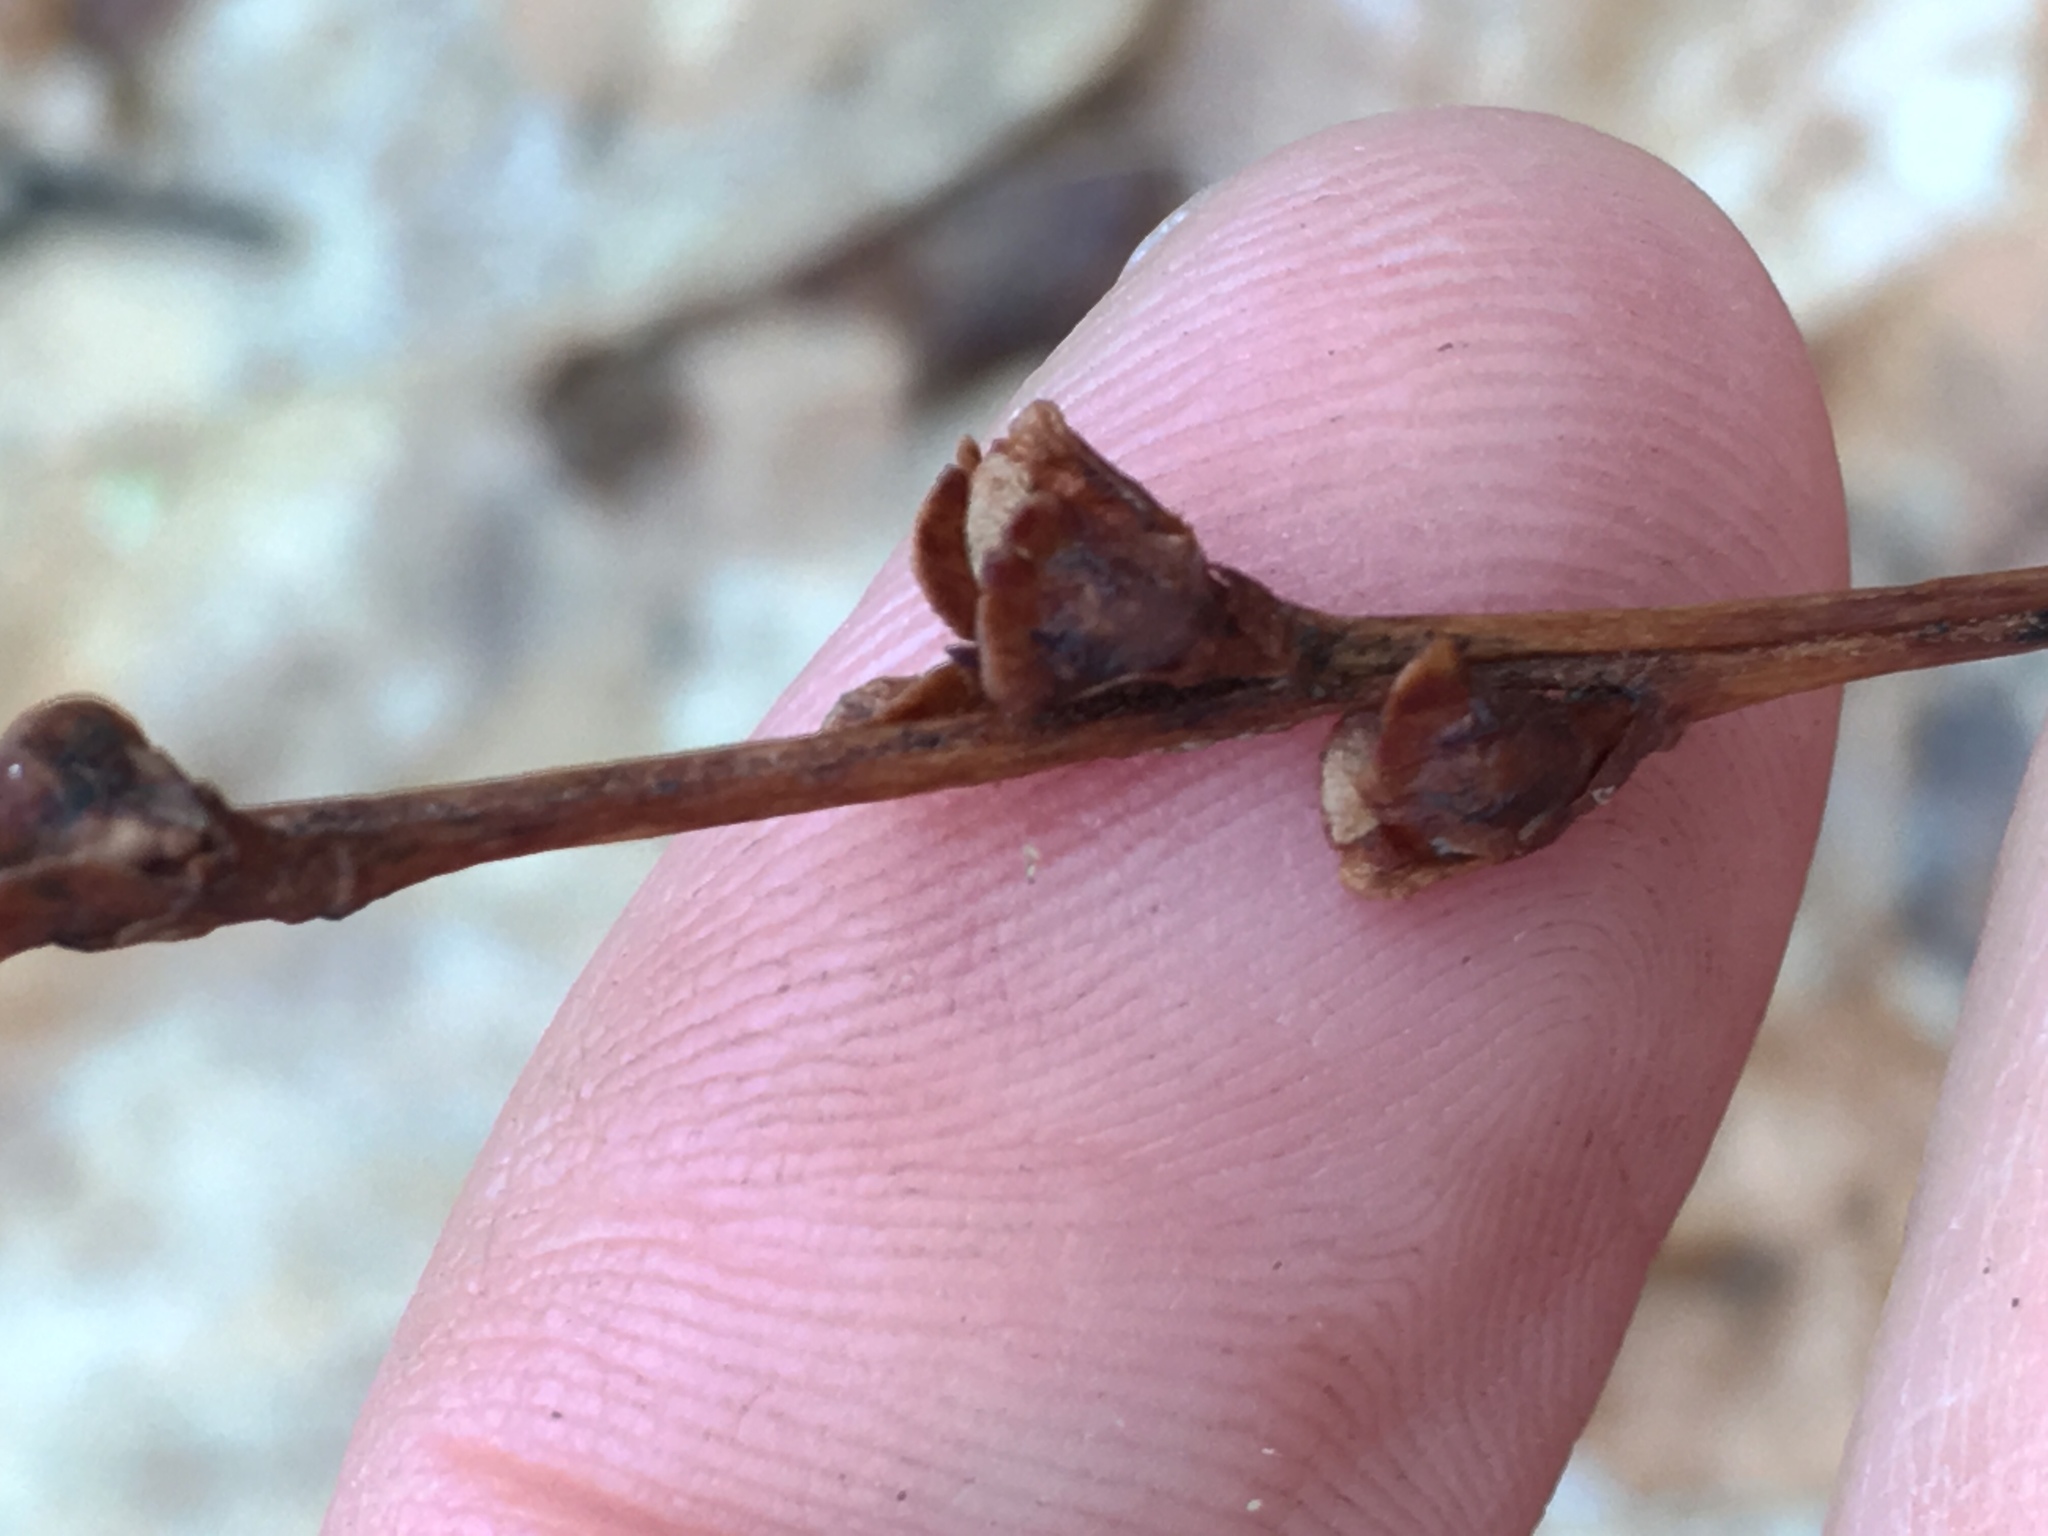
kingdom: Plantae
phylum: Tracheophyta
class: Magnoliopsida
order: Lamiales
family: Orobanchaceae
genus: Epifagus
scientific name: Epifagus virginiana
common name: Beechdrops
